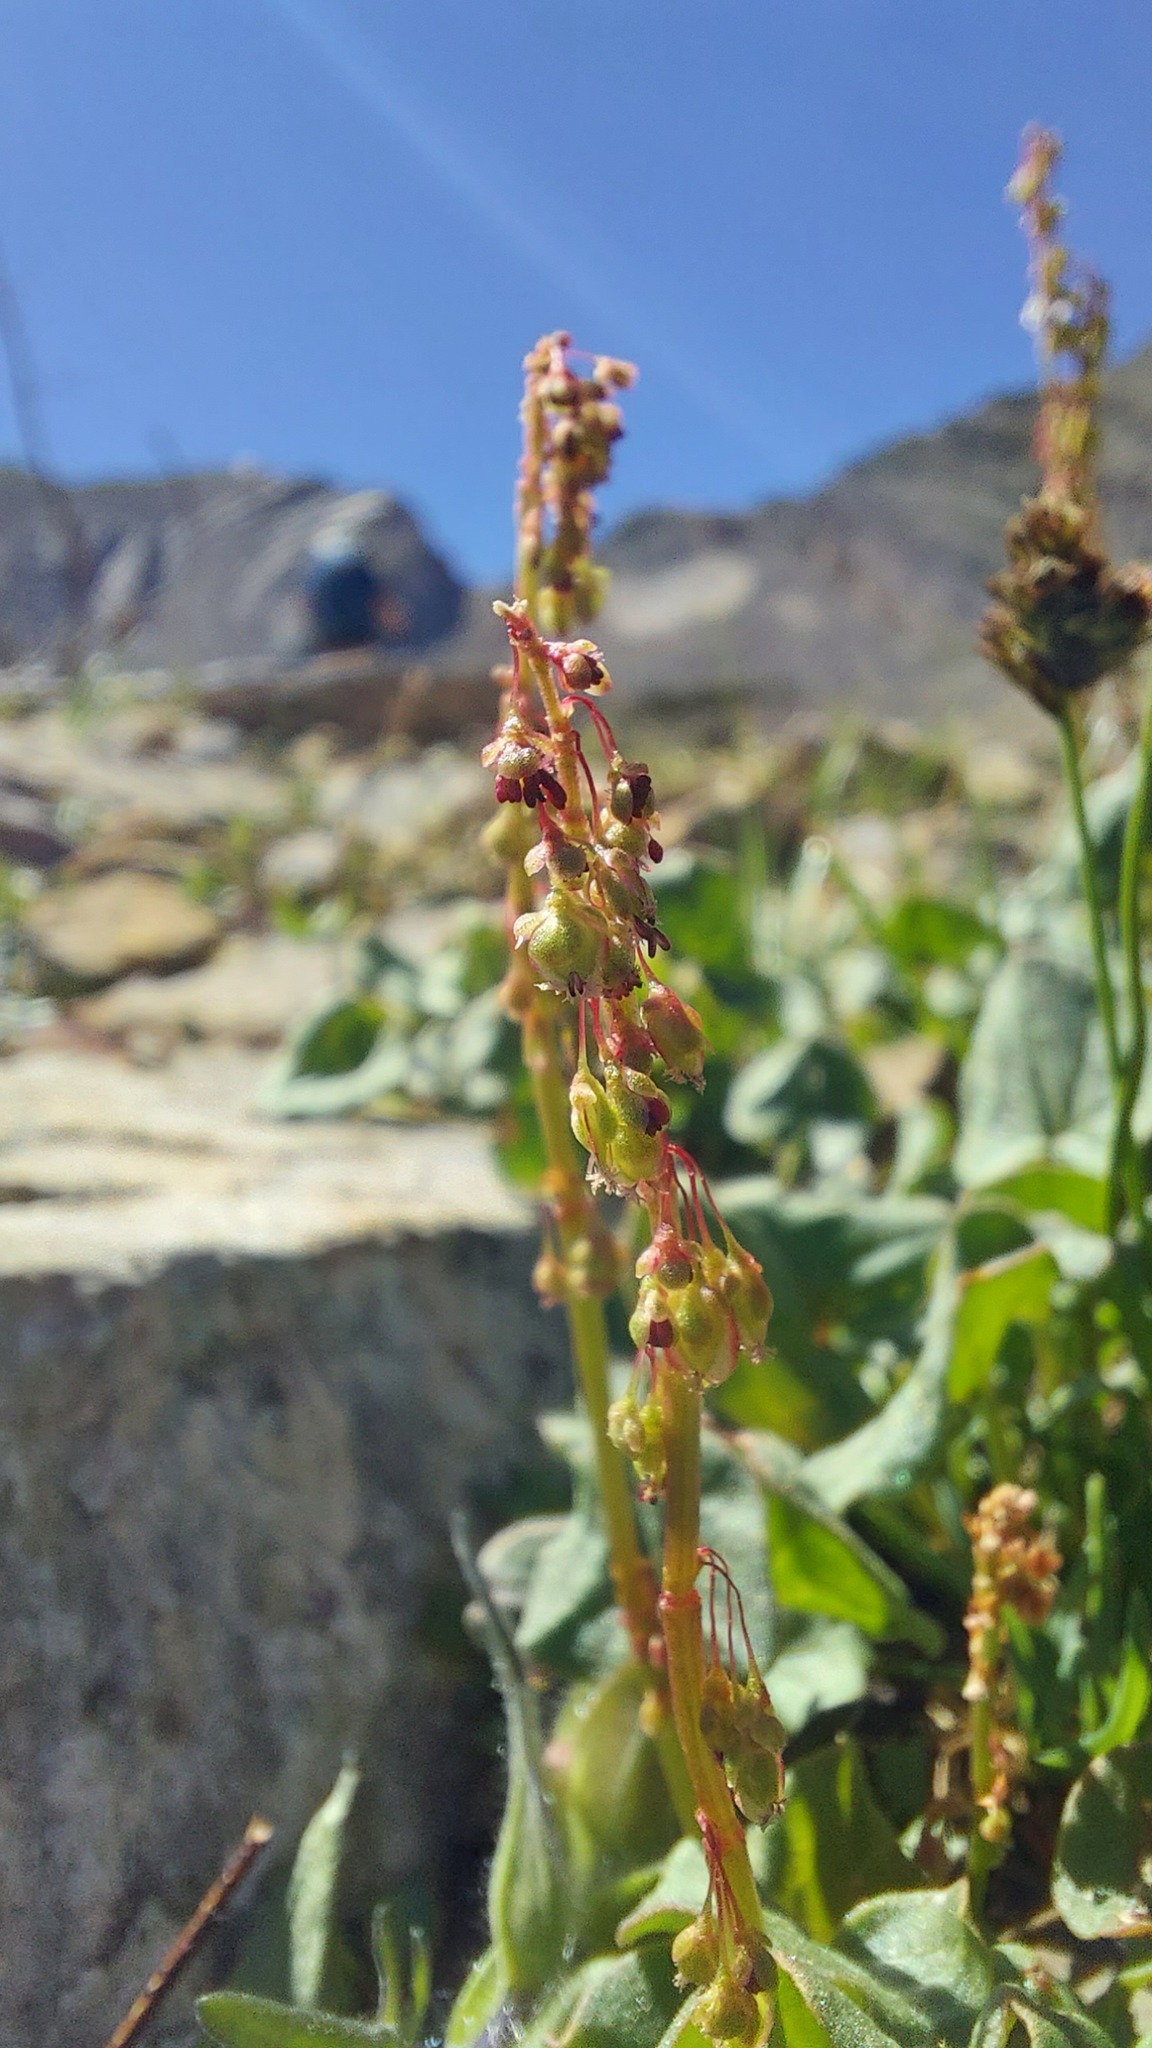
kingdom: Plantae
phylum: Tracheophyta
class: Magnoliopsida
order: Caryophyllales
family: Polygonaceae
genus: Oxyria
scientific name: Oxyria digyna
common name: Alpine mountain-sorrel
